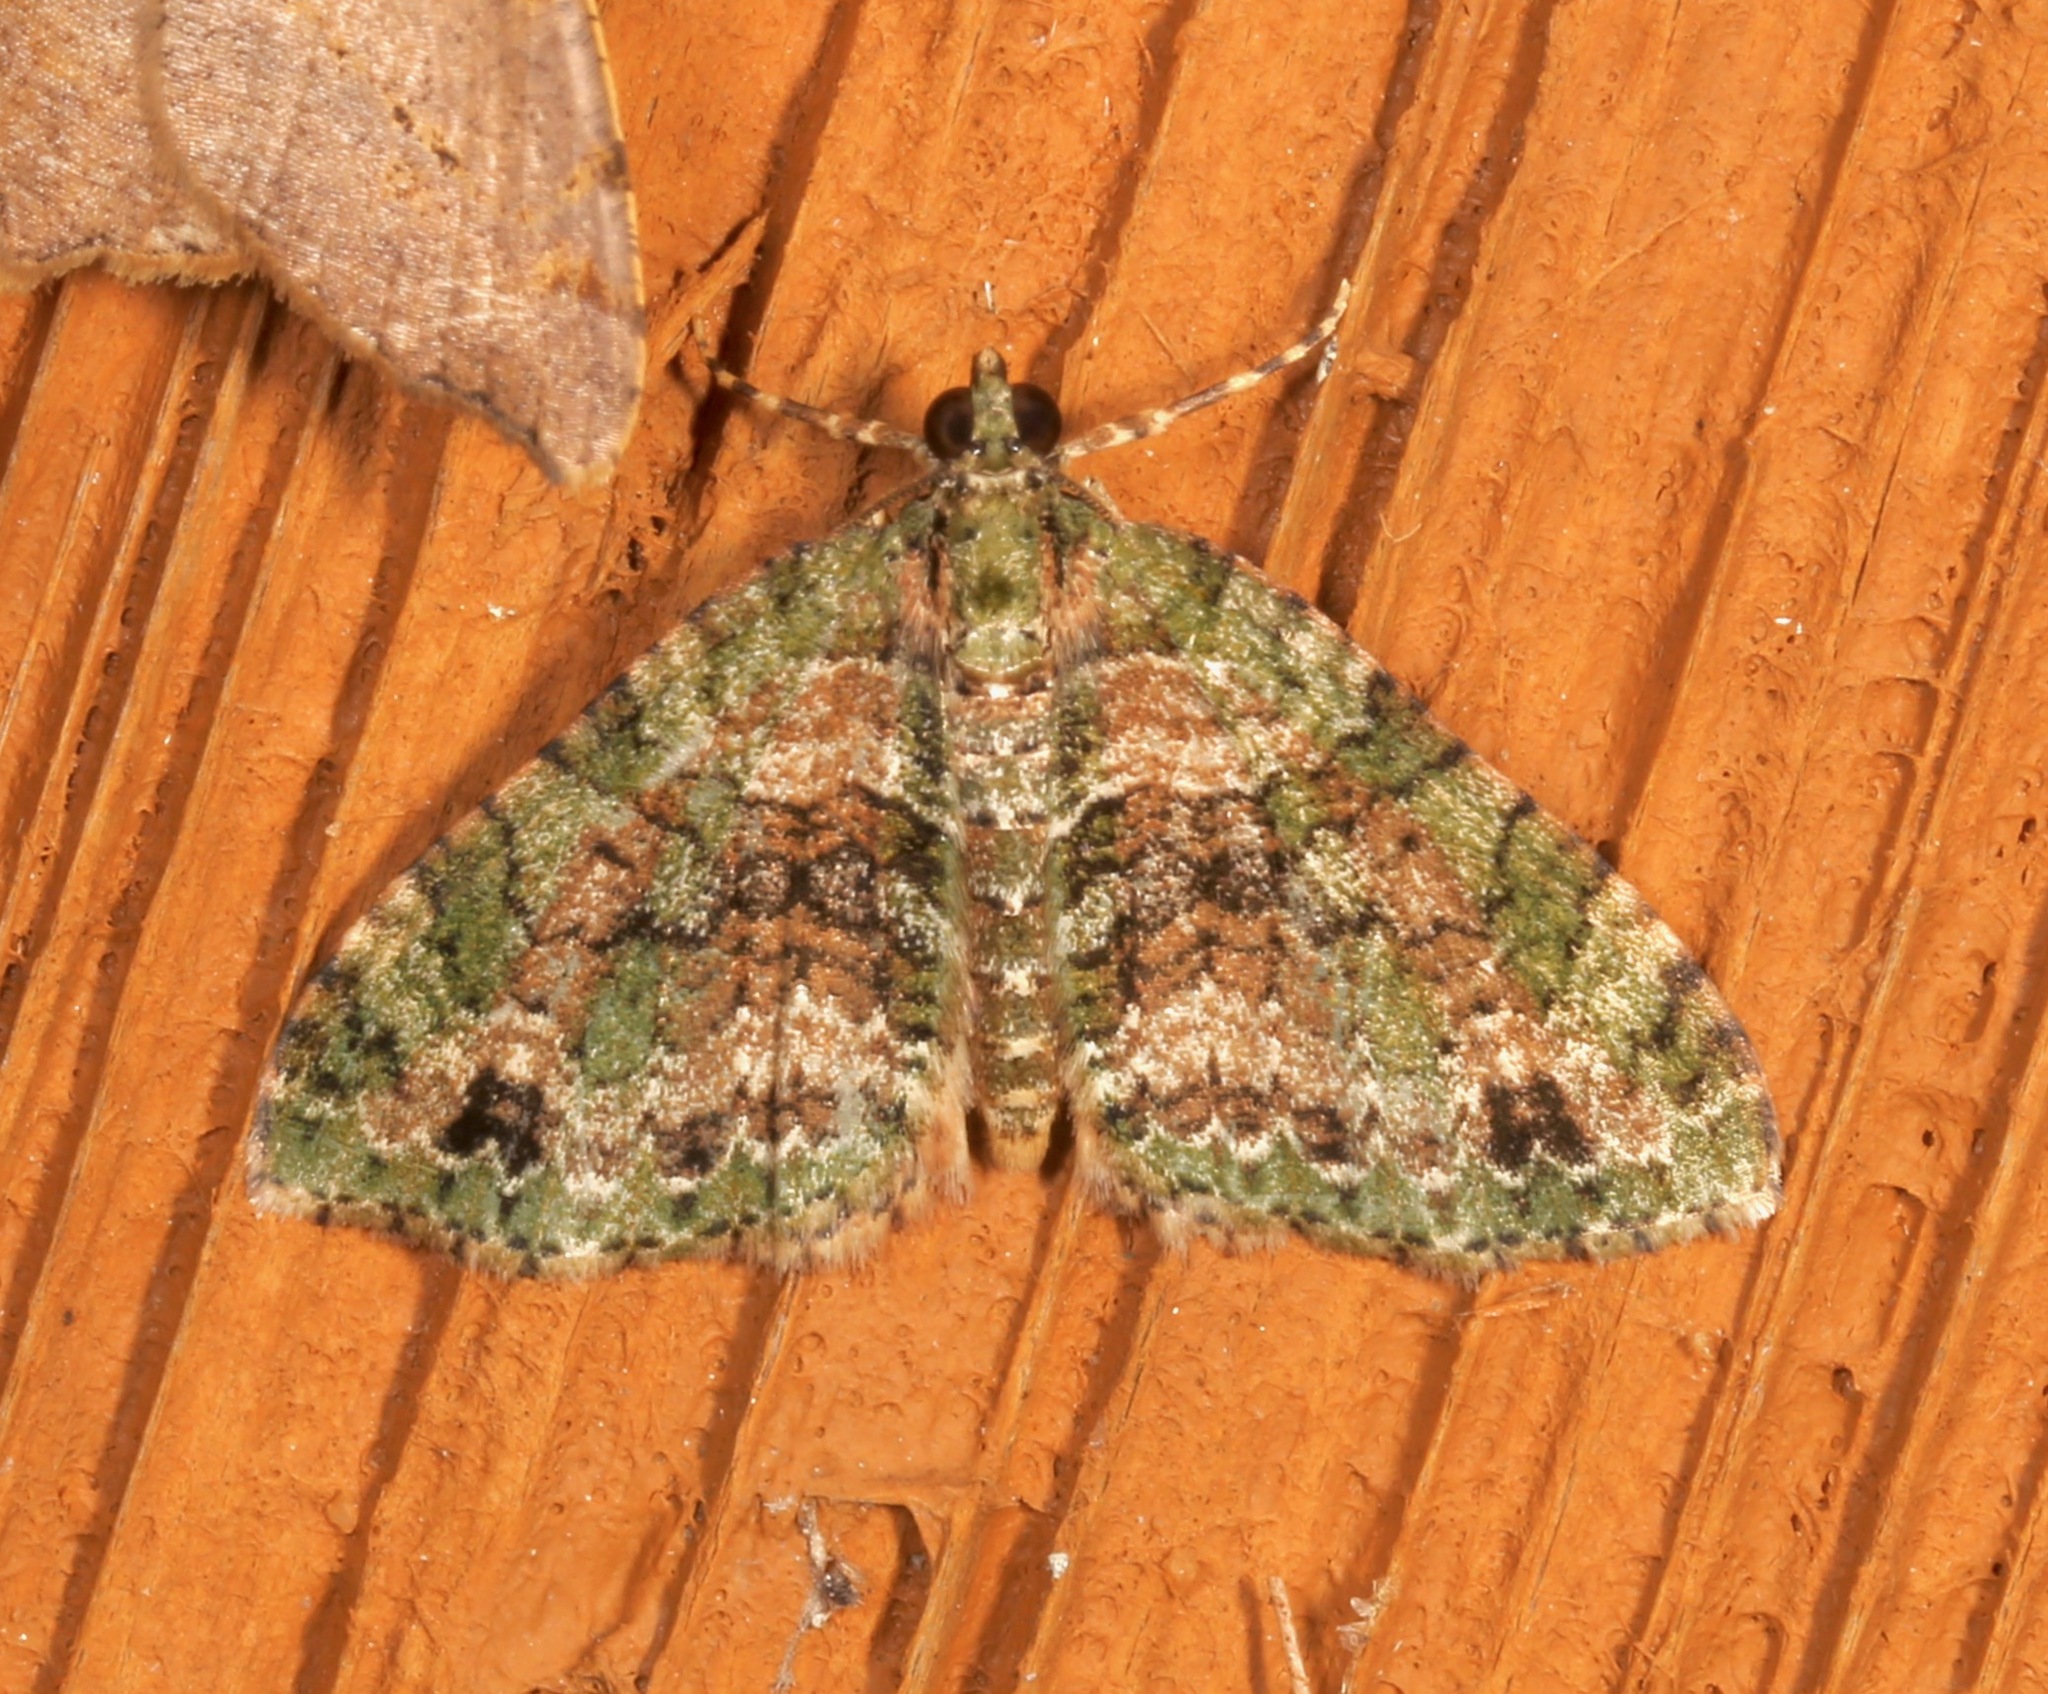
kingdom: Animalia
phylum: Arthropoda
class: Insecta
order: Lepidoptera
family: Geometridae
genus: Hammaptera
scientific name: Hammaptera parinotata
